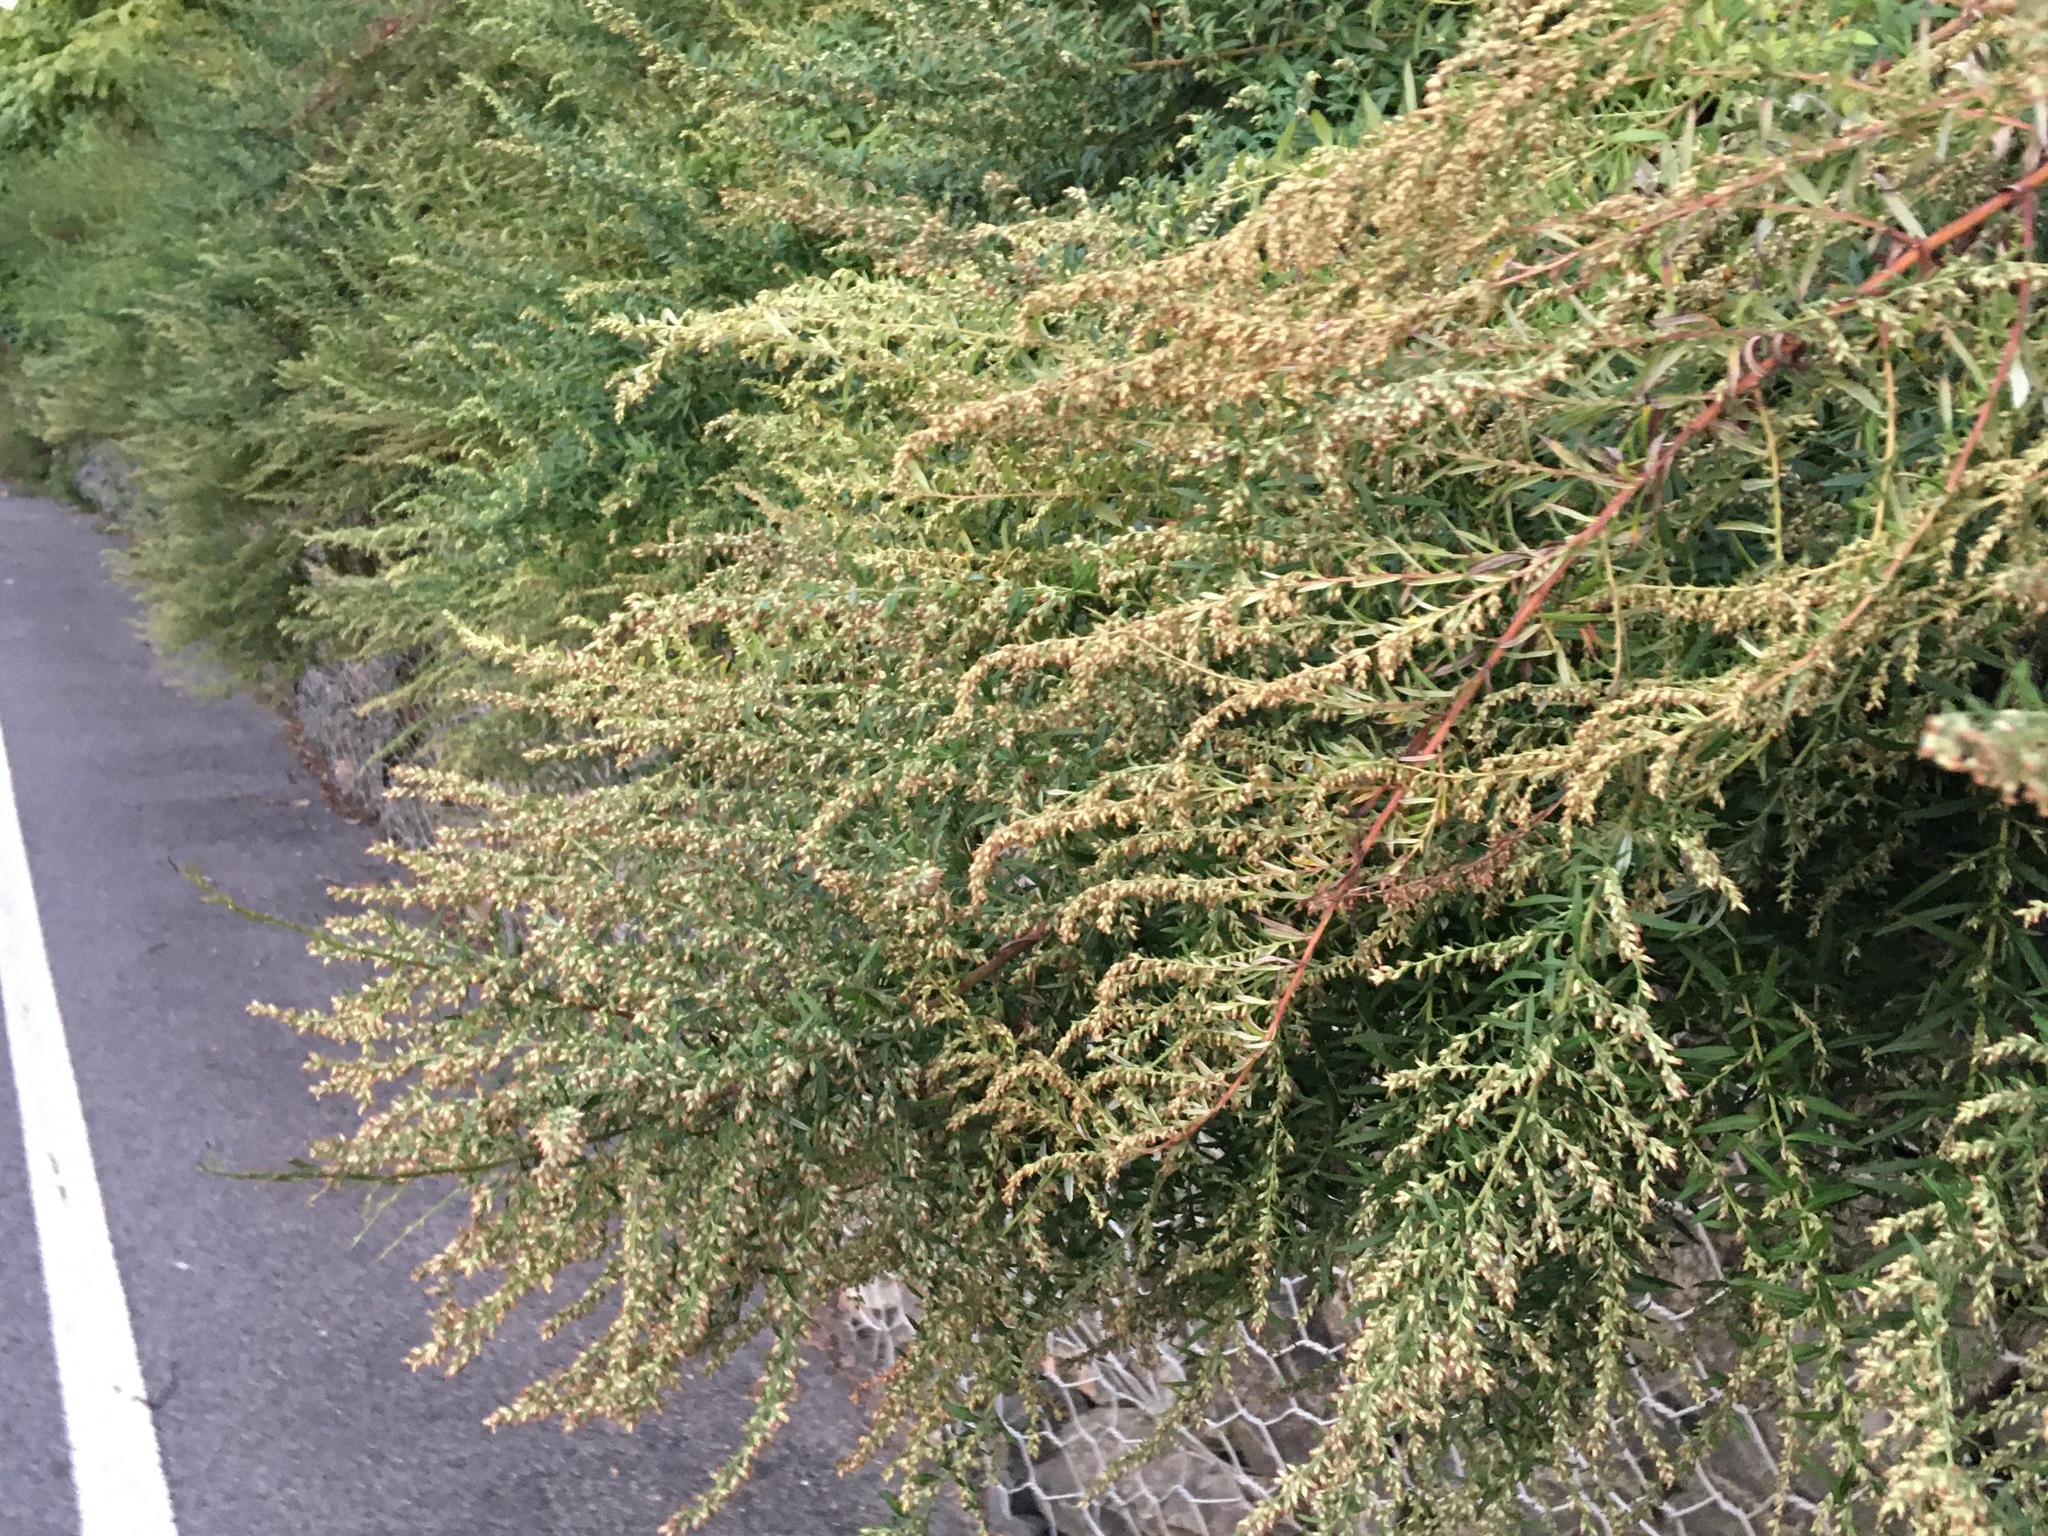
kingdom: Plantae
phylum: Tracheophyta
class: Magnoliopsida
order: Asterales
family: Asteraceae
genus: Artemisia
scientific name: Artemisia vulgaris
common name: Mugwort
